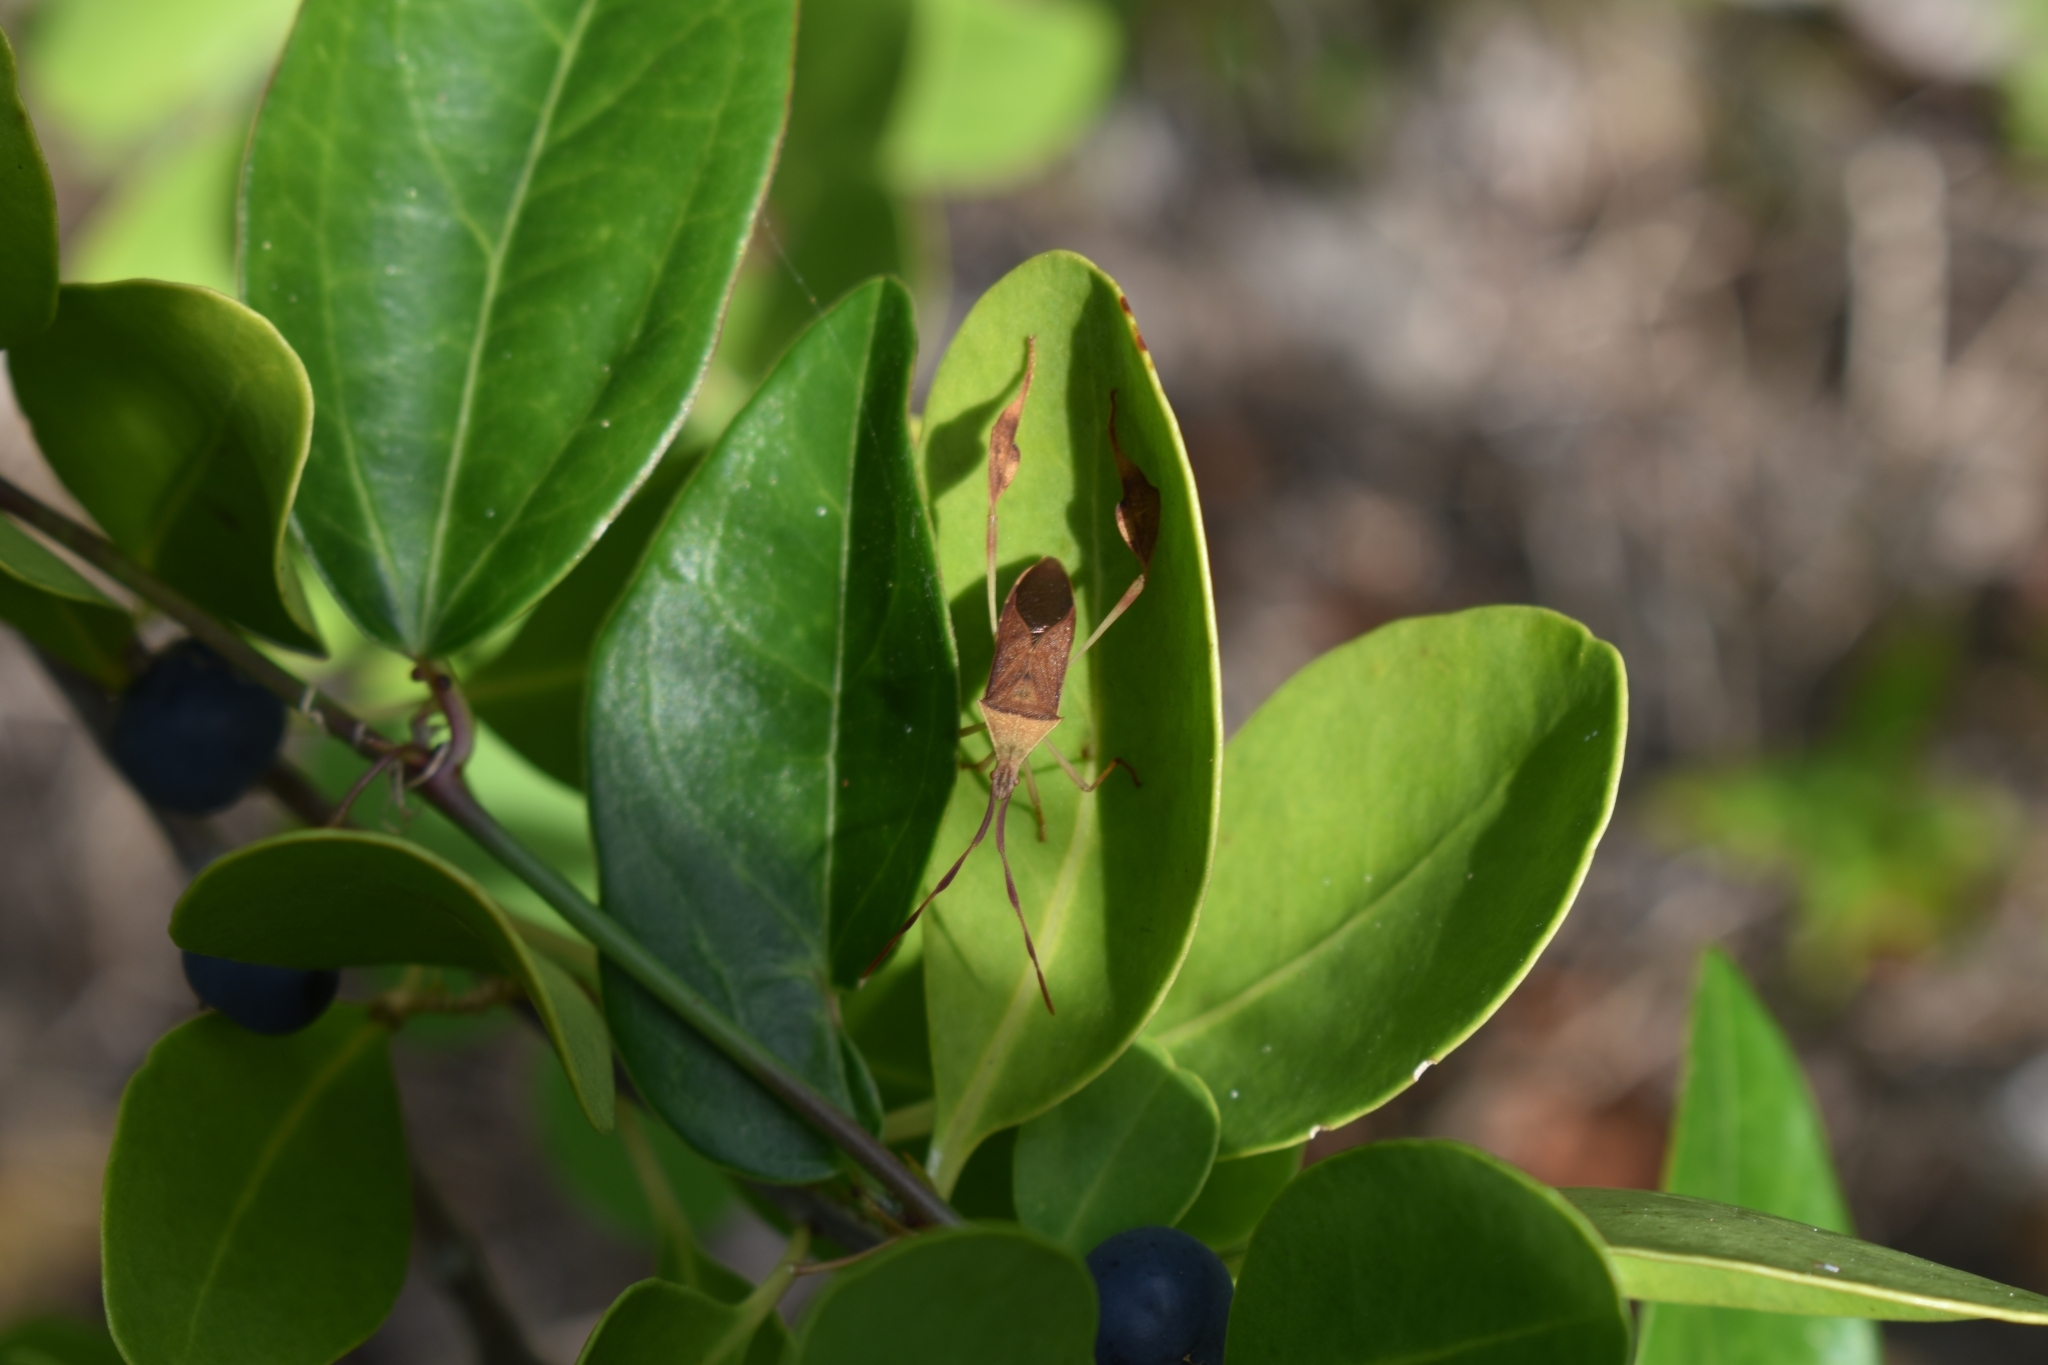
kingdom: Animalia
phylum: Arthropoda
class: Insecta
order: Hemiptera
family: Coreidae
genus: Chondrocera
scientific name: Chondrocera laticornis
